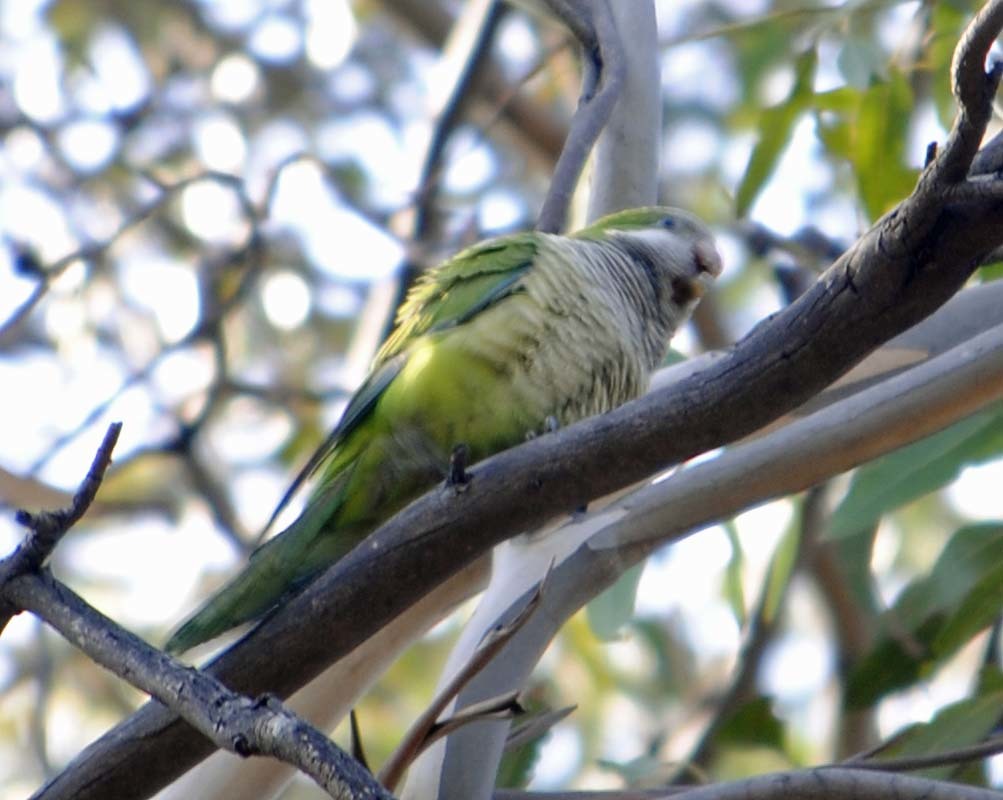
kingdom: Animalia
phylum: Chordata
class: Aves
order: Psittaciformes
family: Psittacidae
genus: Myiopsitta
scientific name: Myiopsitta monachus
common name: Monk parakeet
